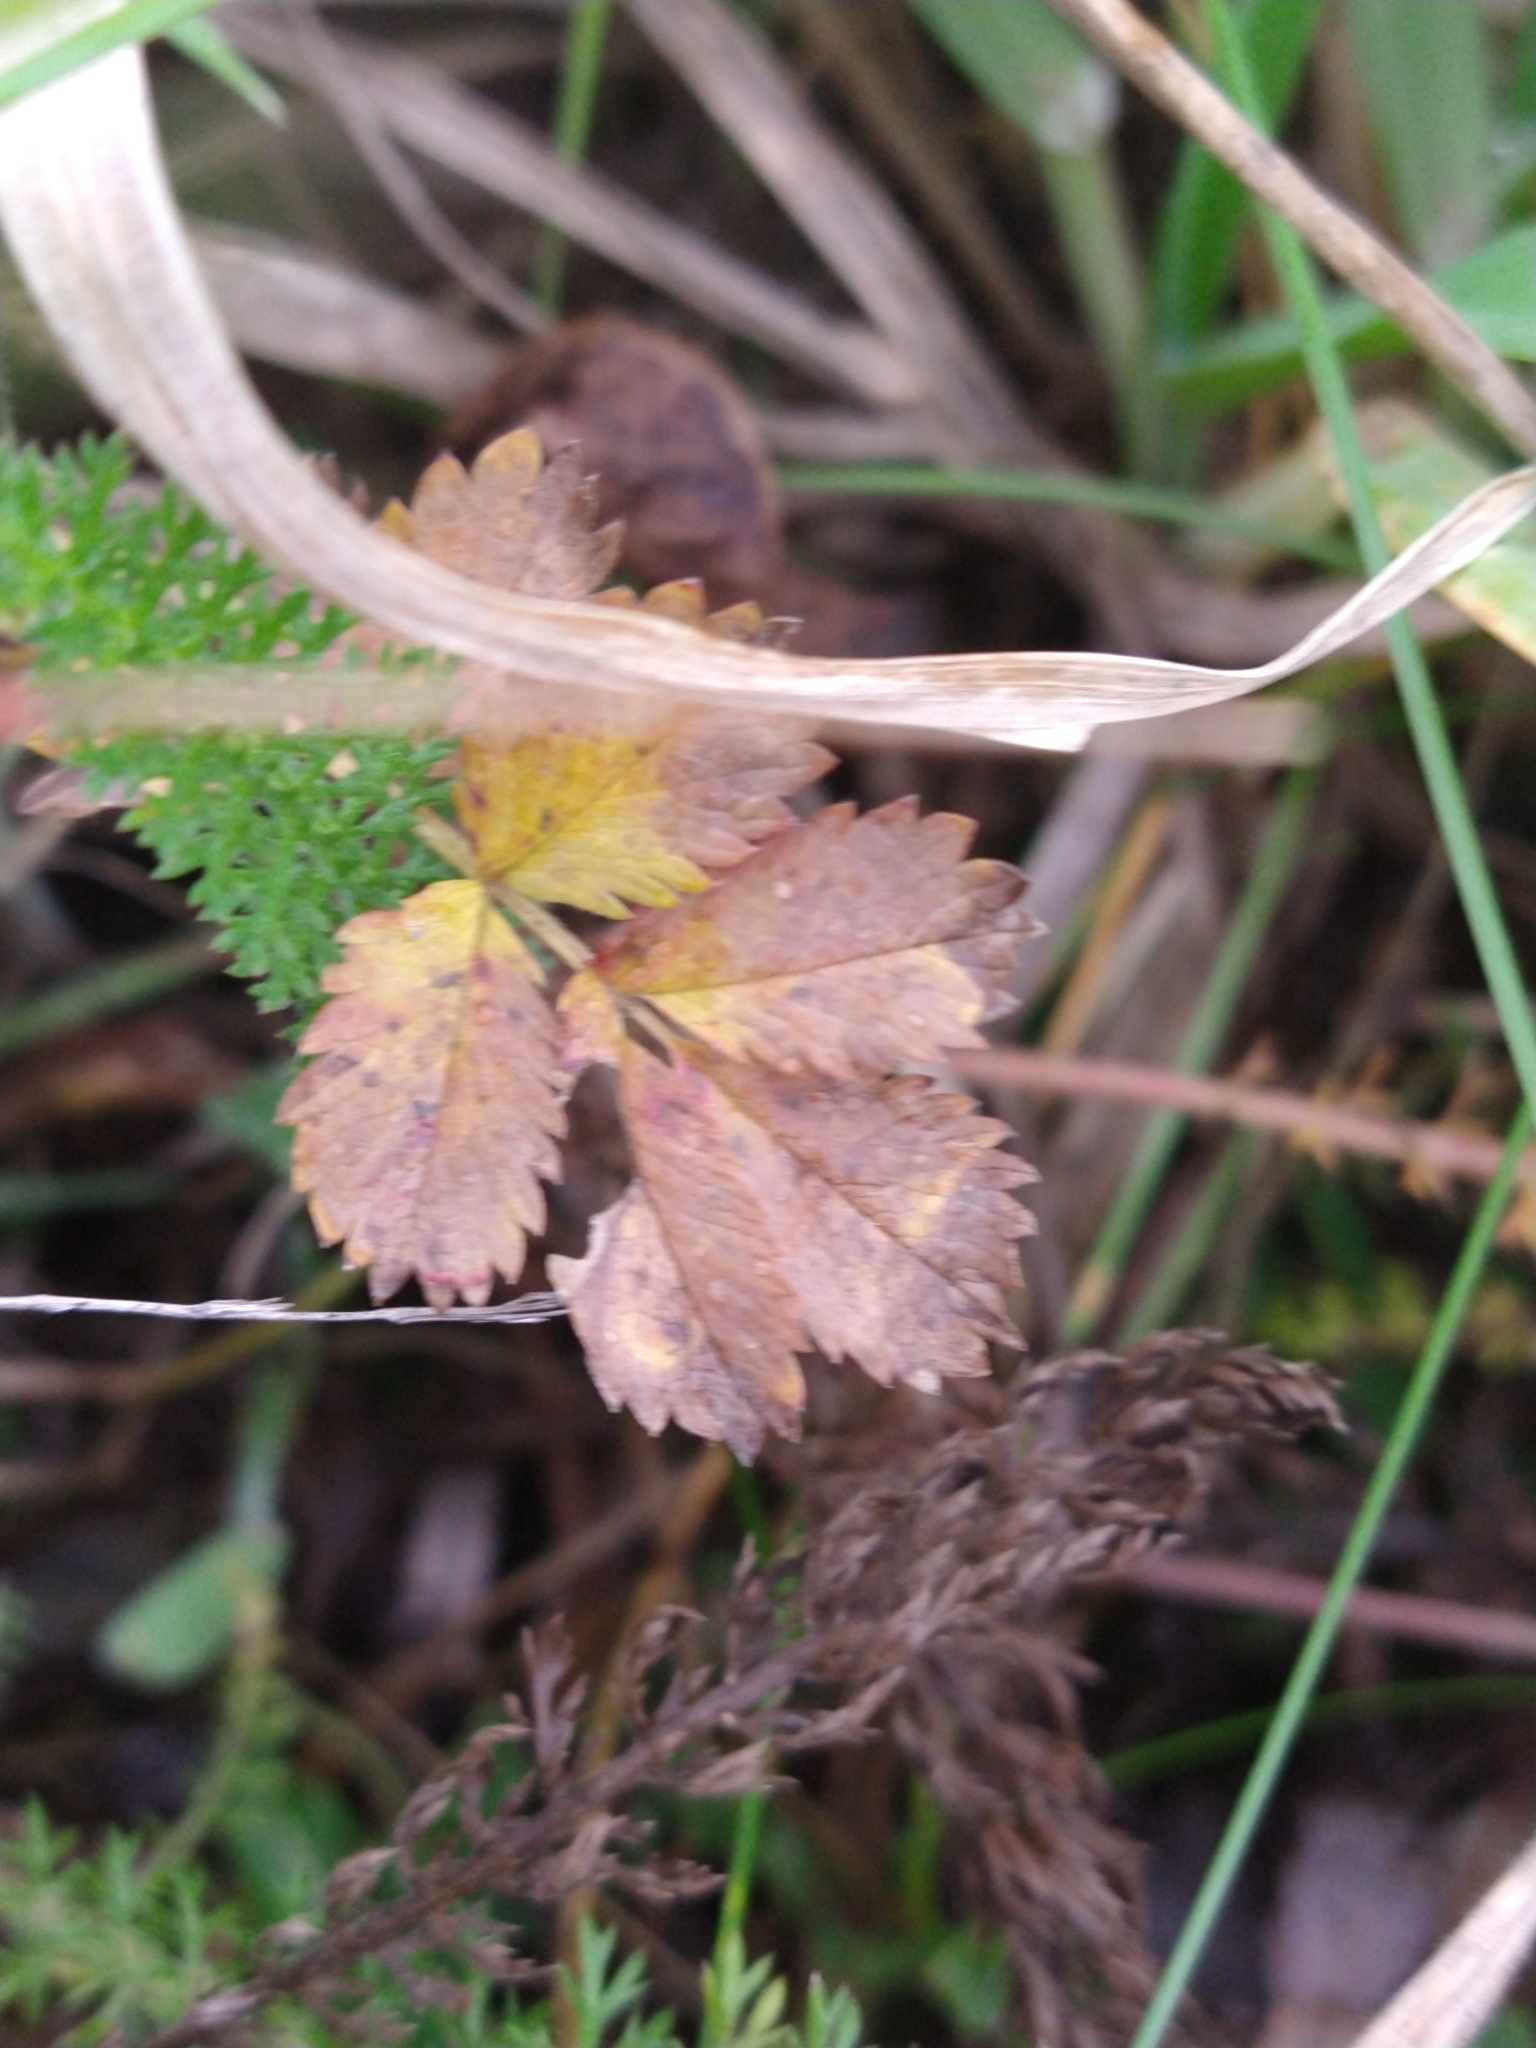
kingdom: Plantae
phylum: Tracheophyta
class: Magnoliopsida
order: Rosales
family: Rosaceae
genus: Acaena
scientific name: Acaena magellanica
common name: New zealand burr
